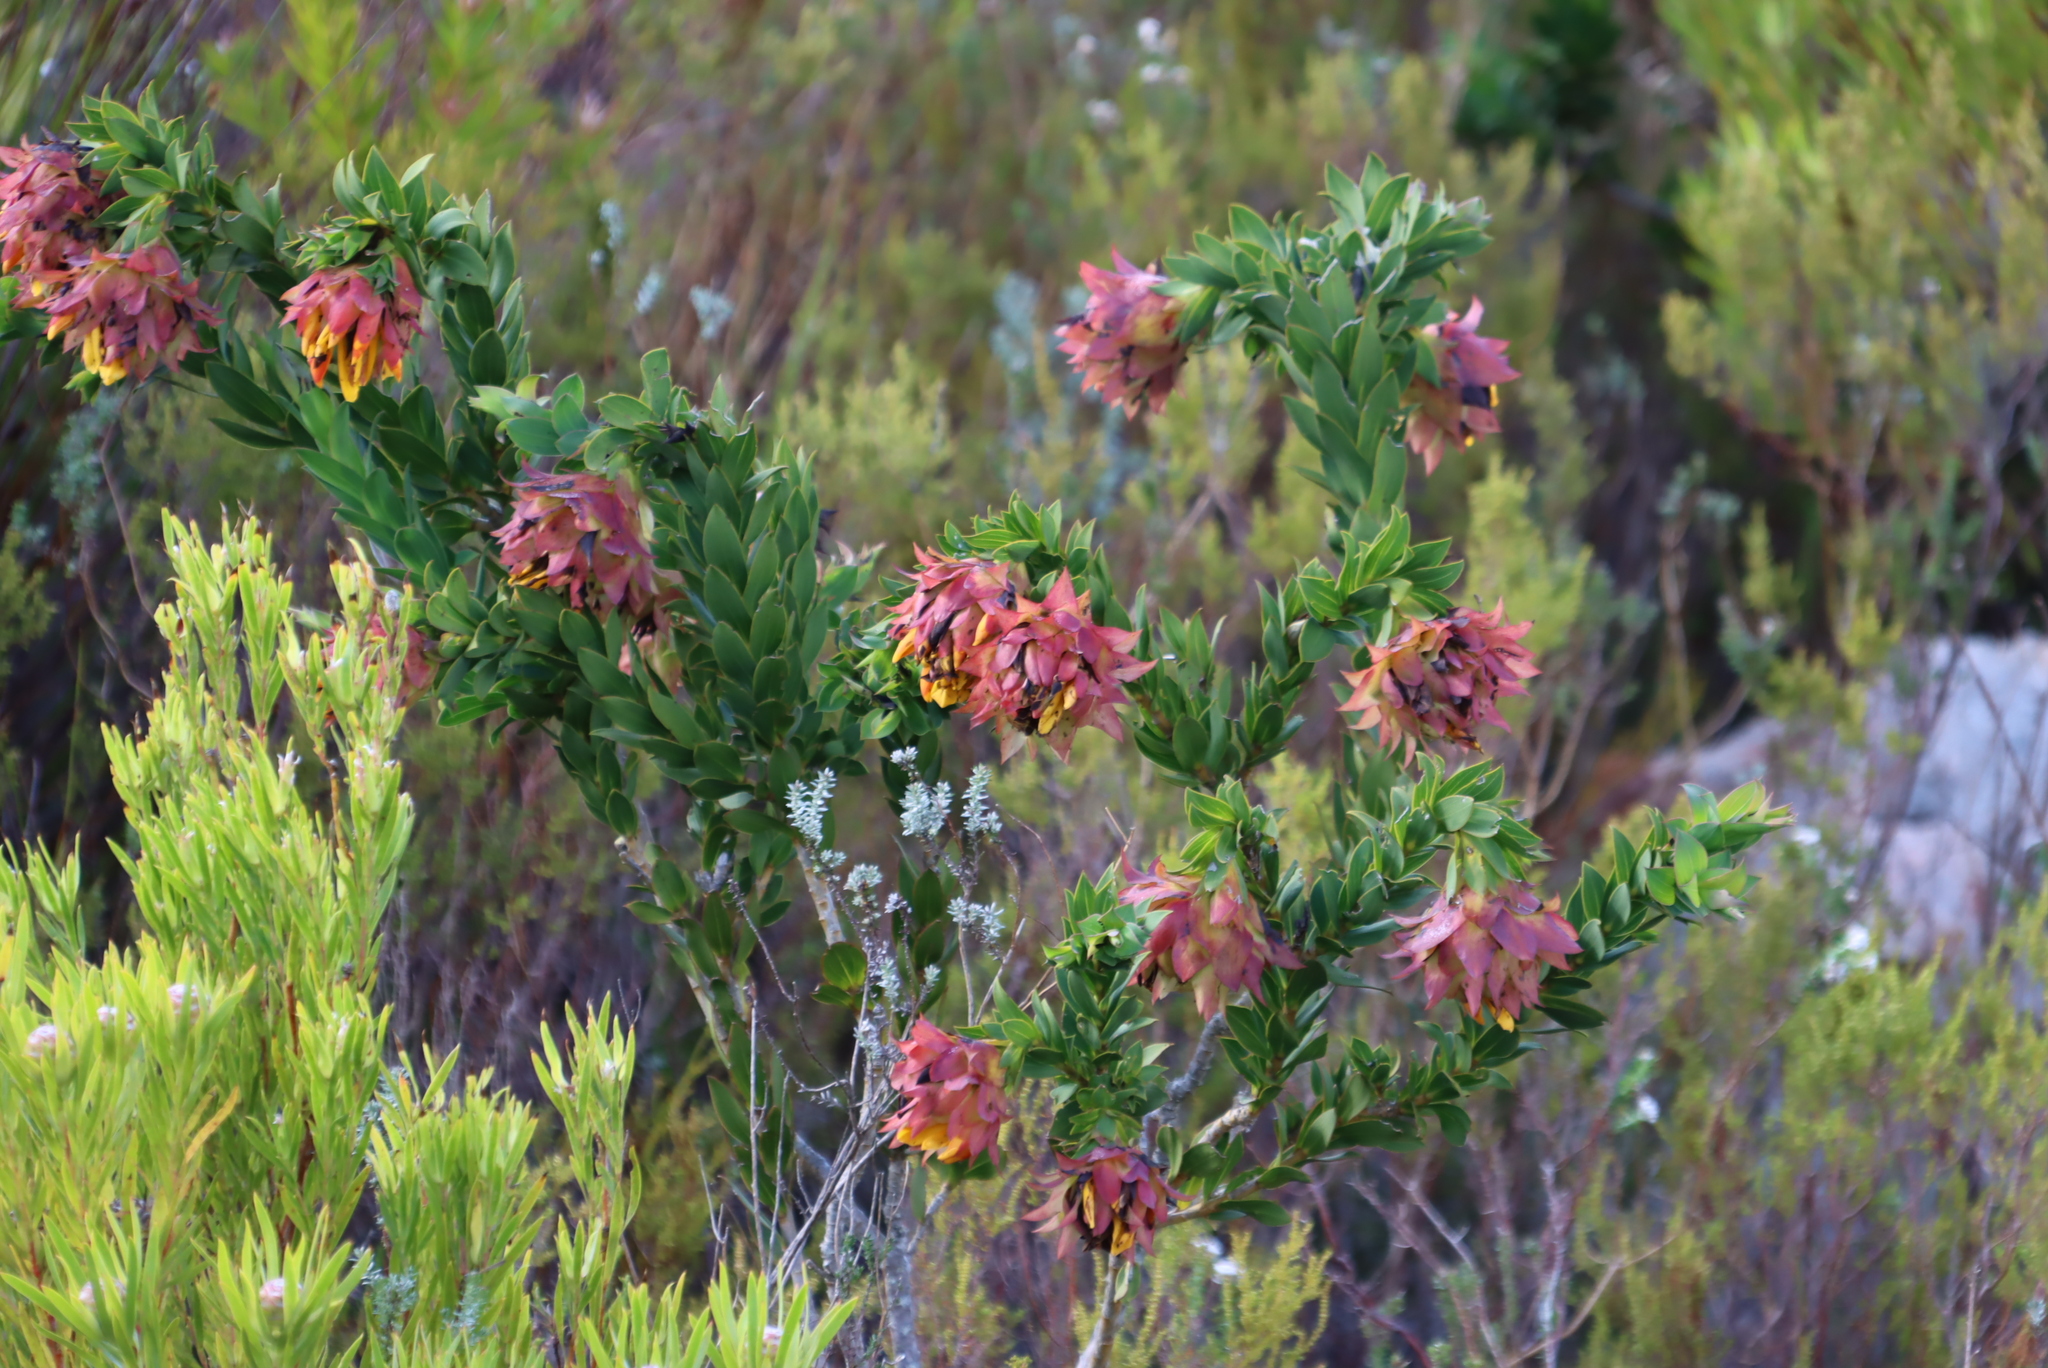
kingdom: Plantae
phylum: Tracheophyta
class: Magnoliopsida
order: Fabales
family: Fabaceae
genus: Liparia
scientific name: Liparia splendens
